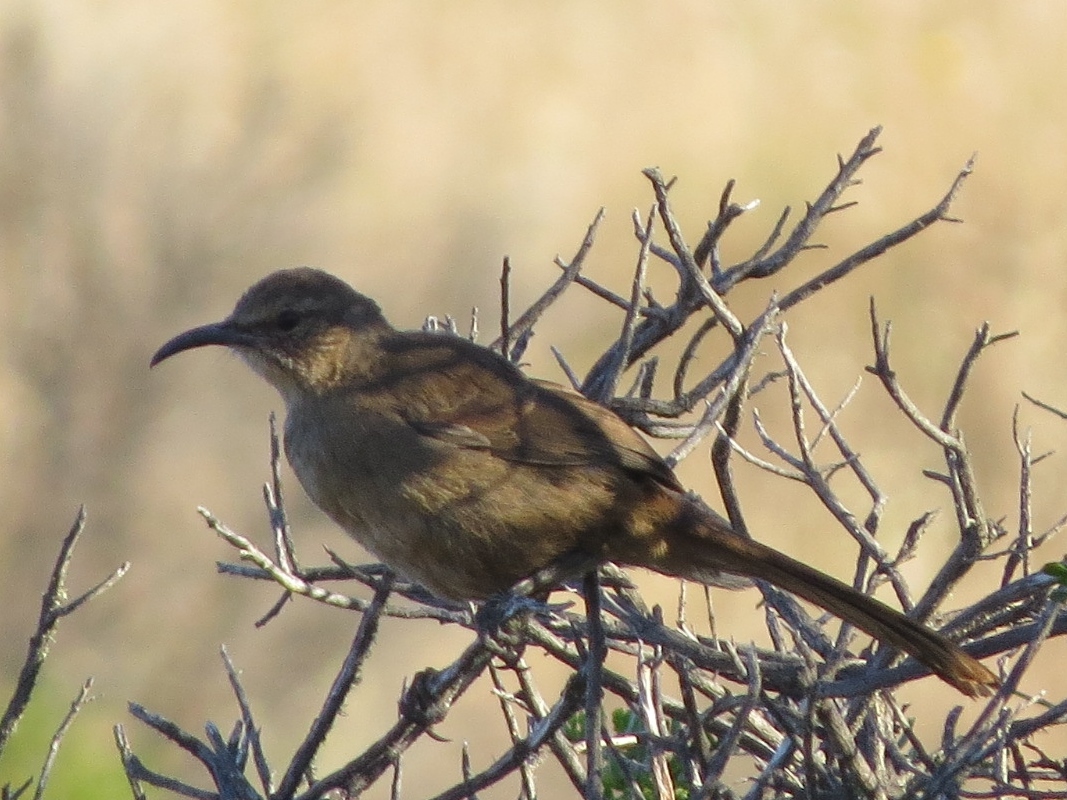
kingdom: Animalia
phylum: Chordata
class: Aves
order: Passeriformes
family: Mimidae
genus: Toxostoma
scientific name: Toxostoma redivivum
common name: California thrasher
